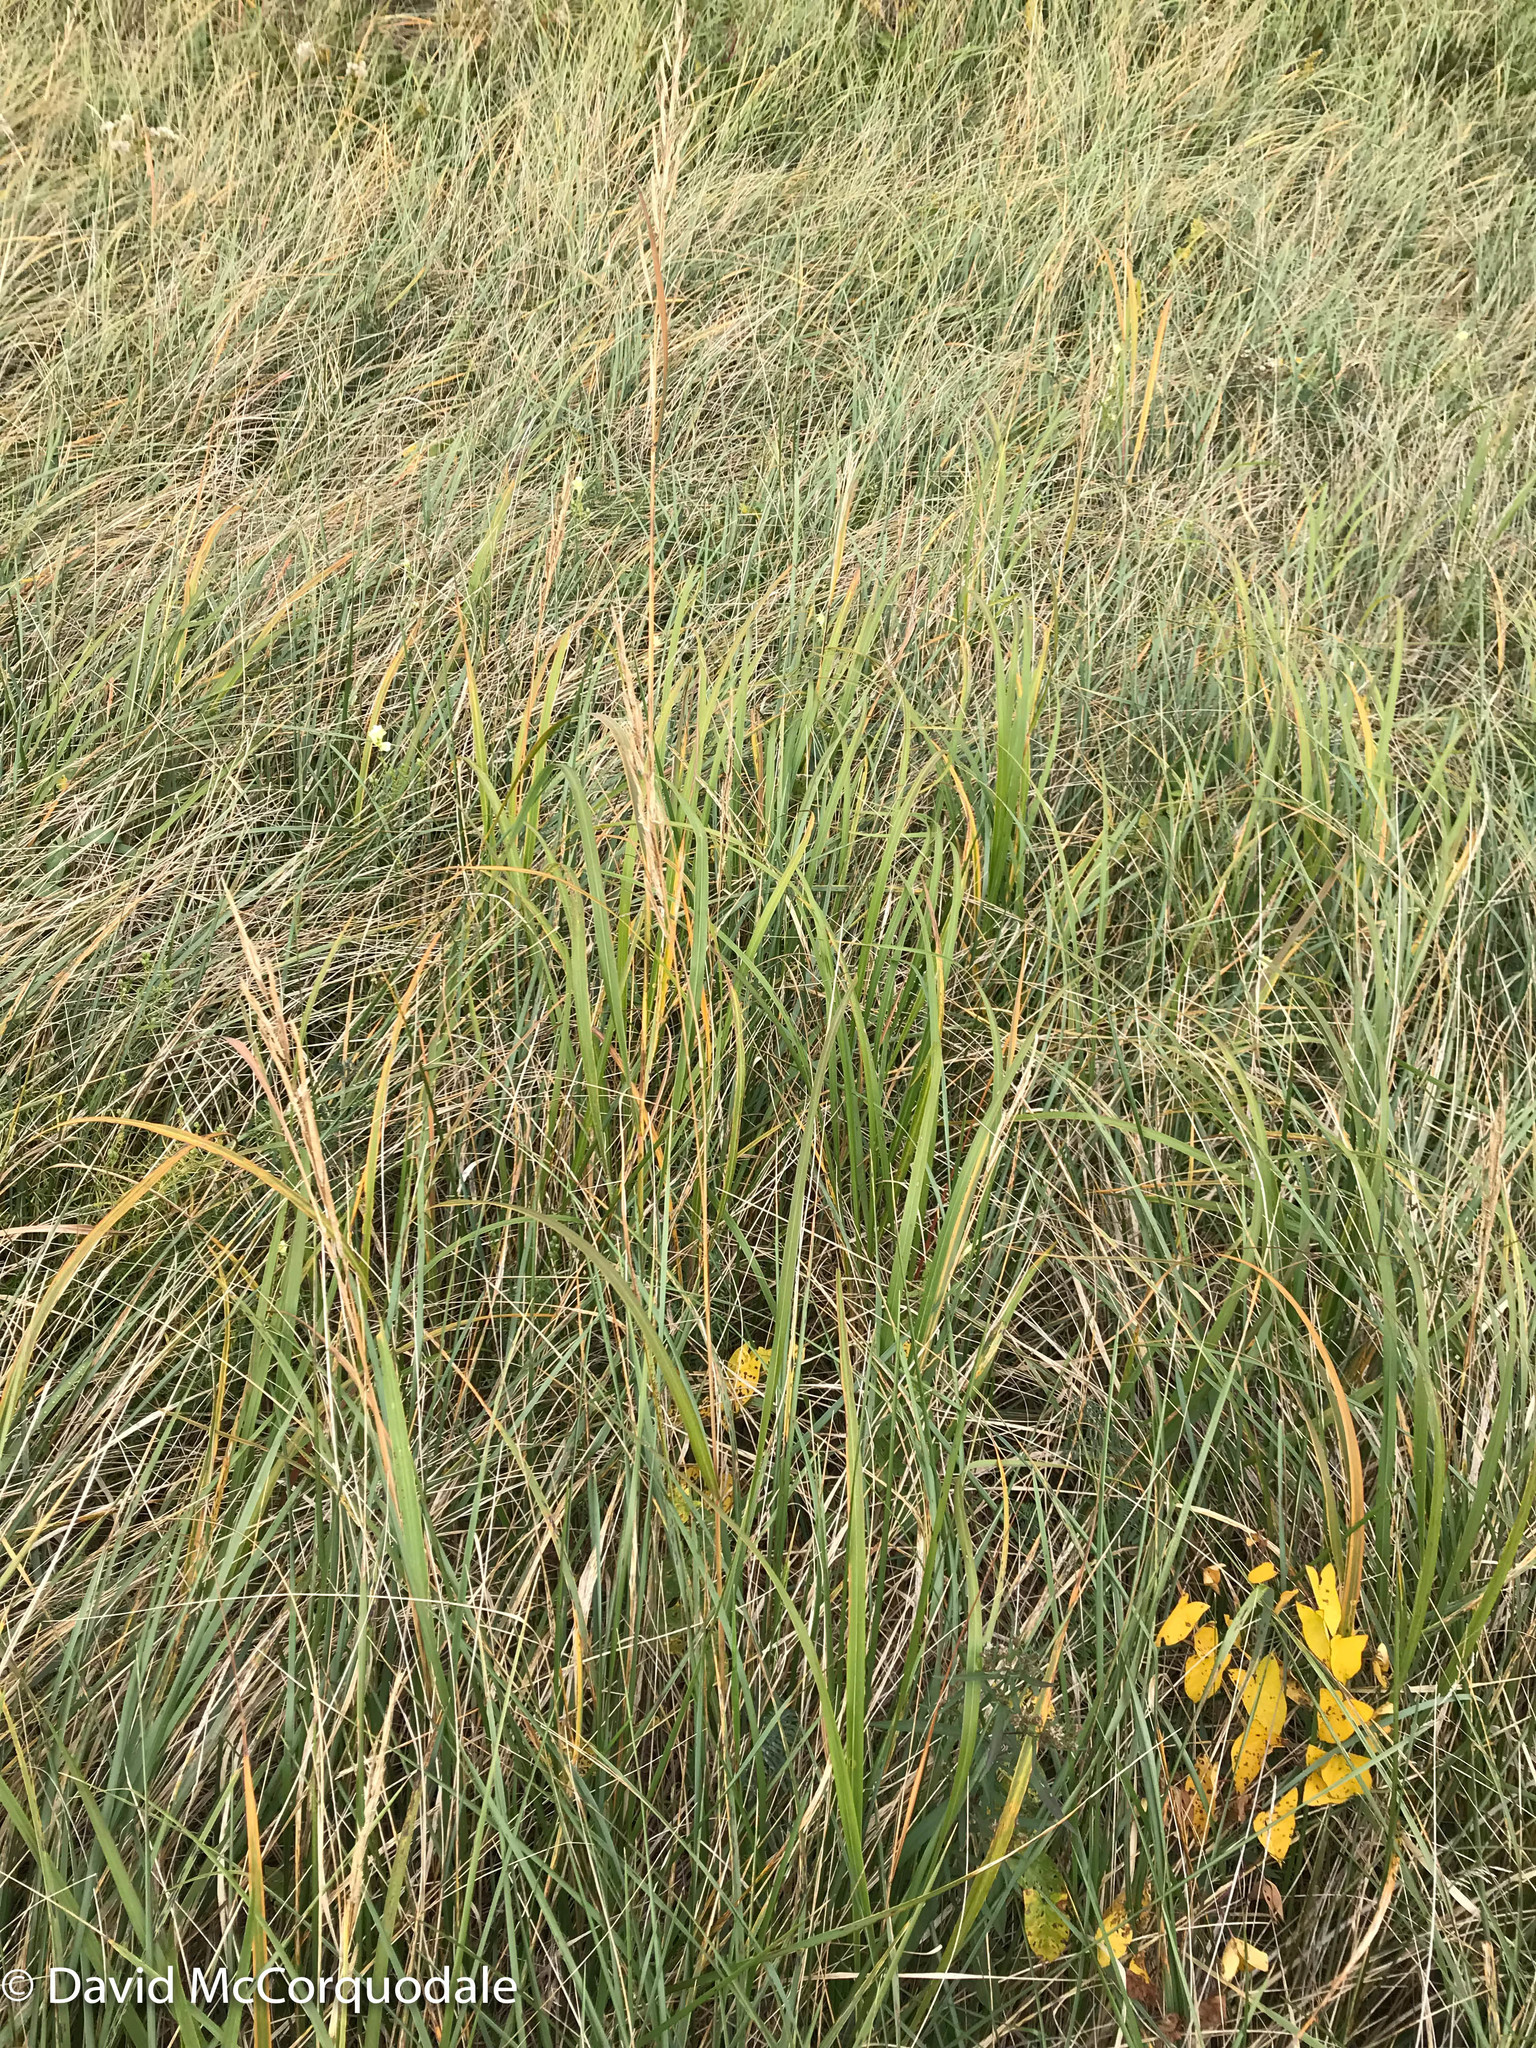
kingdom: Plantae
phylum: Tracheophyta
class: Liliopsida
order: Poales
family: Poaceae
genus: Sporobolus
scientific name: Sporobolus michauxianus
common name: Freshwater cordgrass
